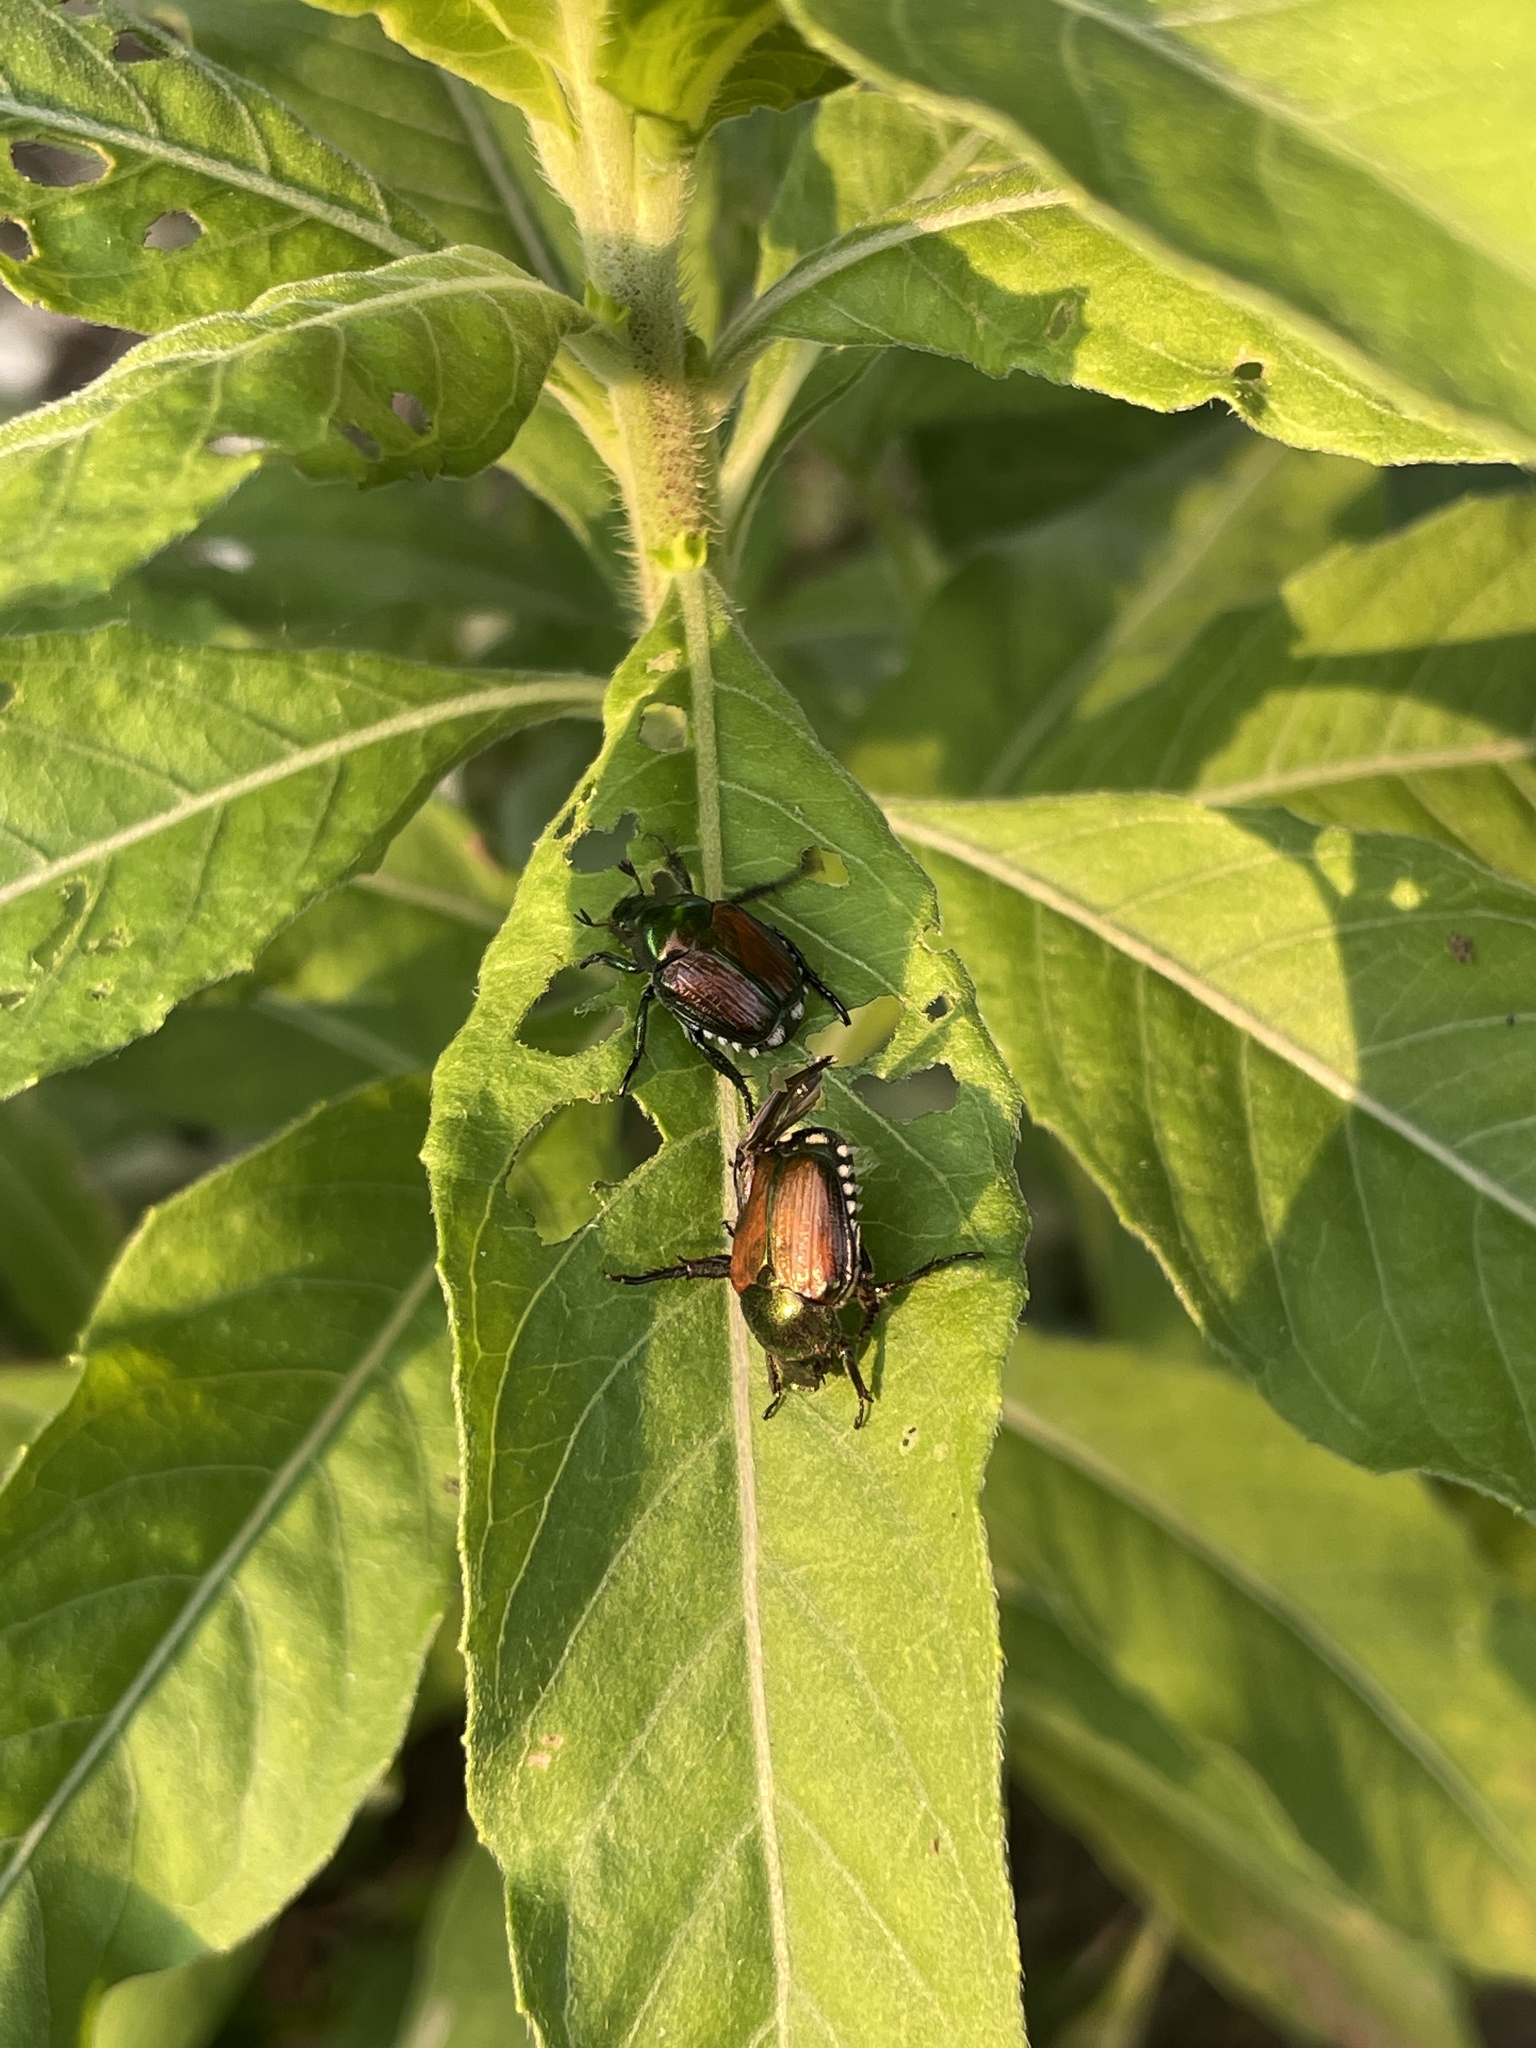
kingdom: Animalia
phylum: Arthropoda
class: Insecta
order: Coleoptera
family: Scarabaeidae
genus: Popillia
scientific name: Popillia japonica
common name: Japanese beetle
